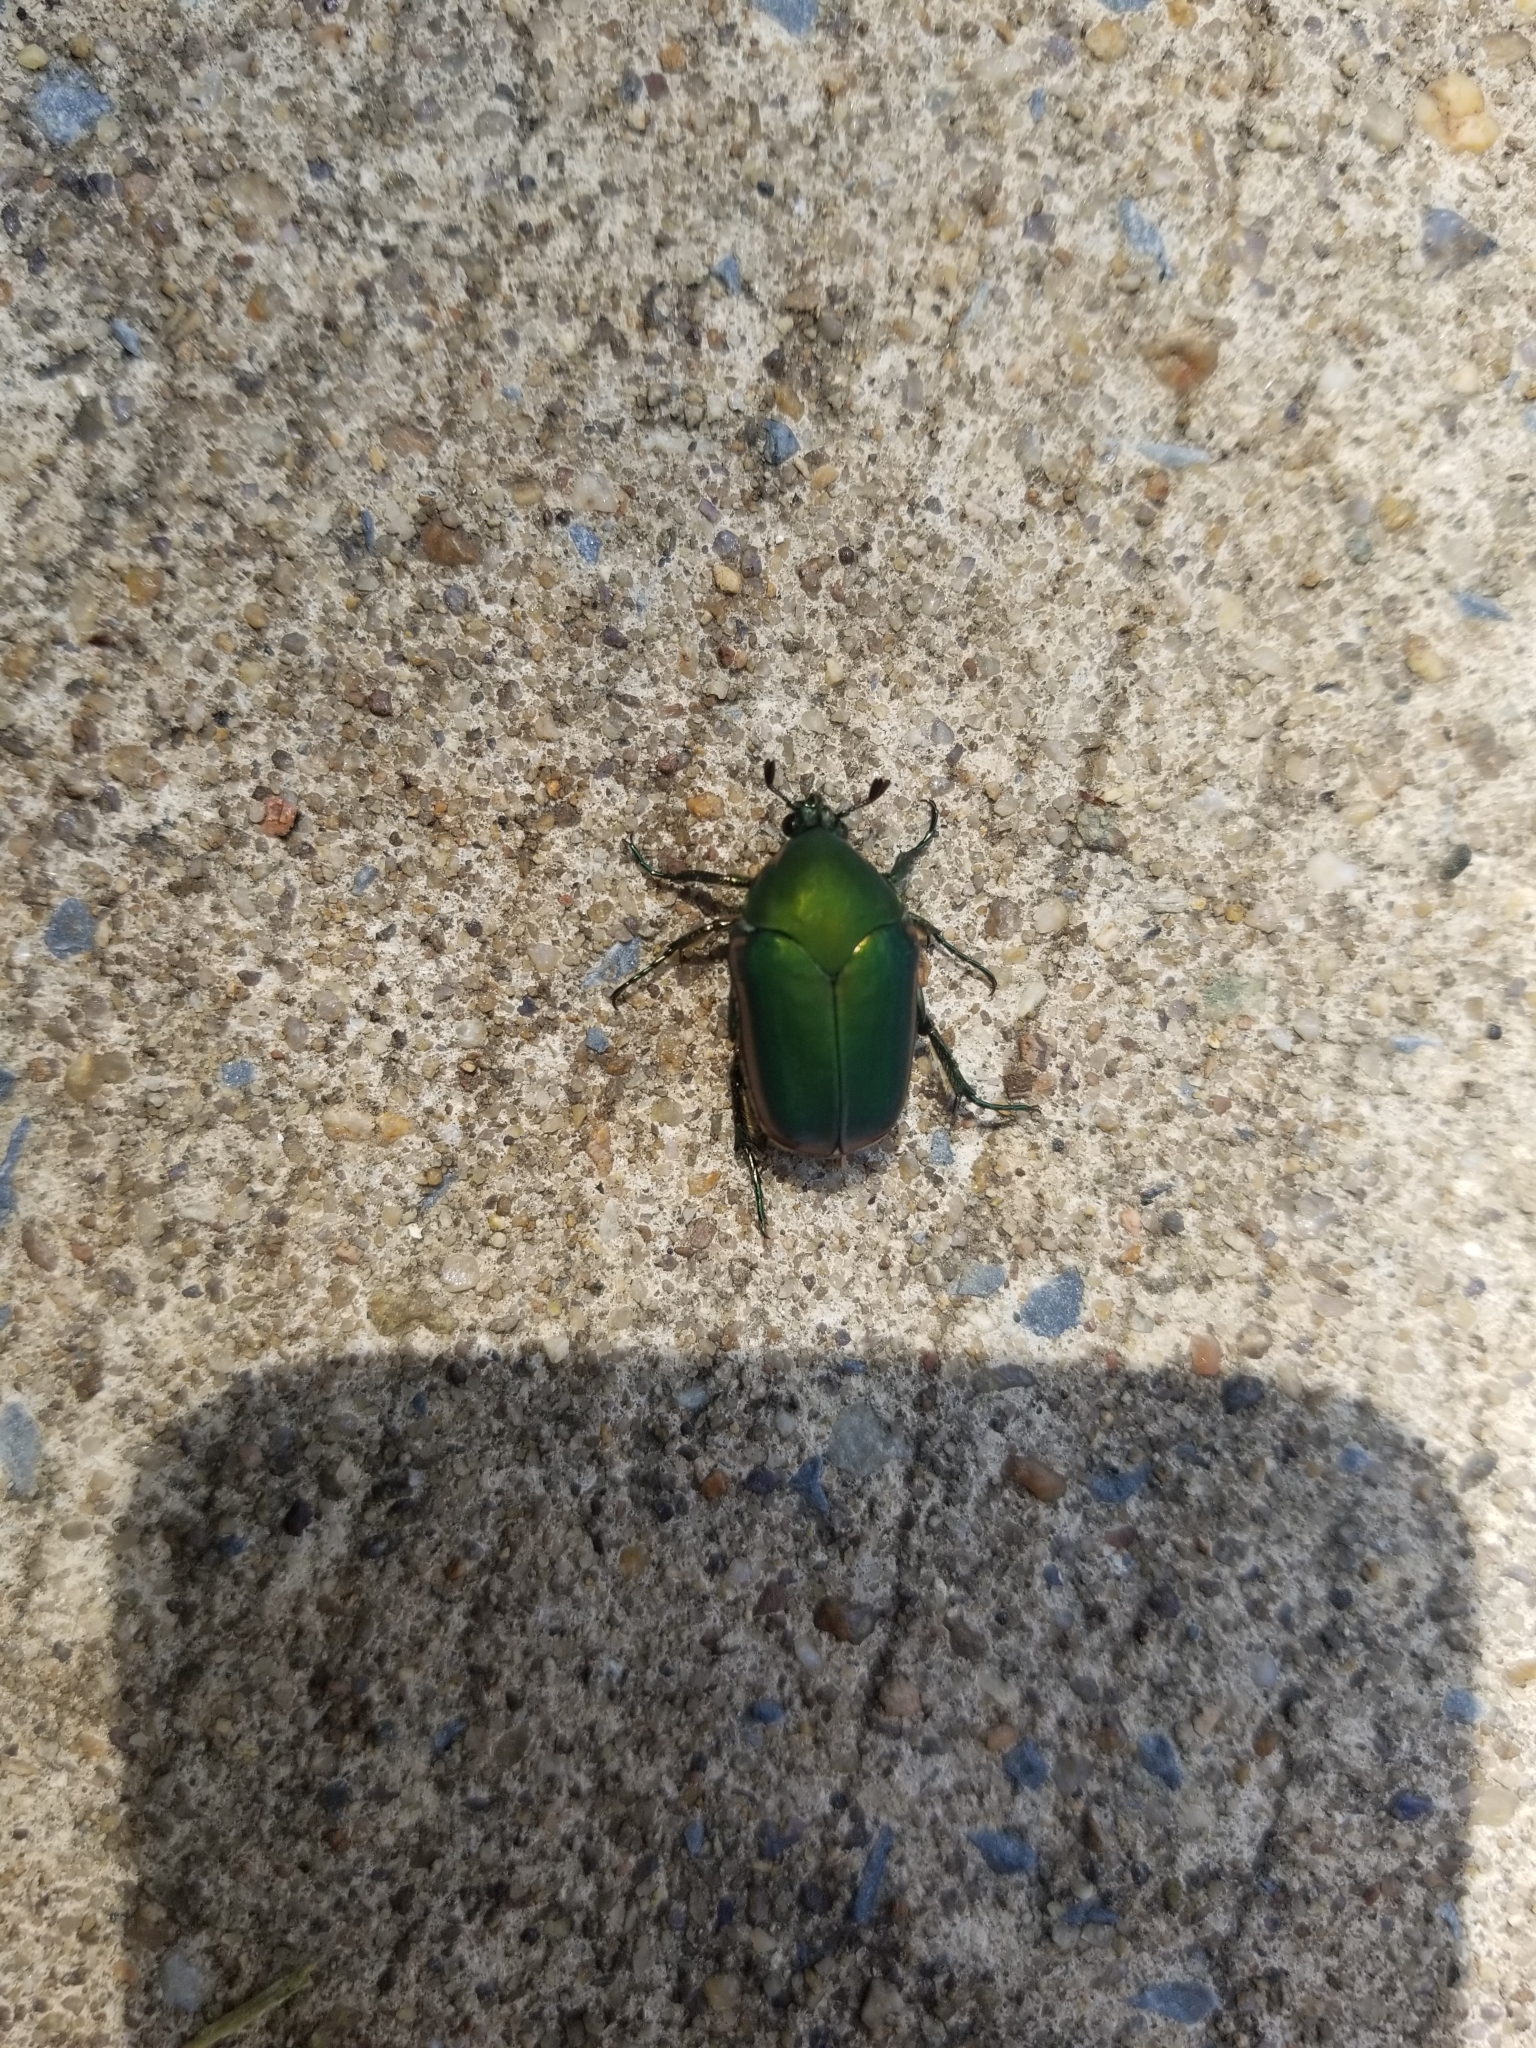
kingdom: Animalia
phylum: Arthropoda
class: Insecta
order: Coleoptera
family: Scarabaeidae
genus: Cotinis
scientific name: Cotinis nitida
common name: Common green june beetle
